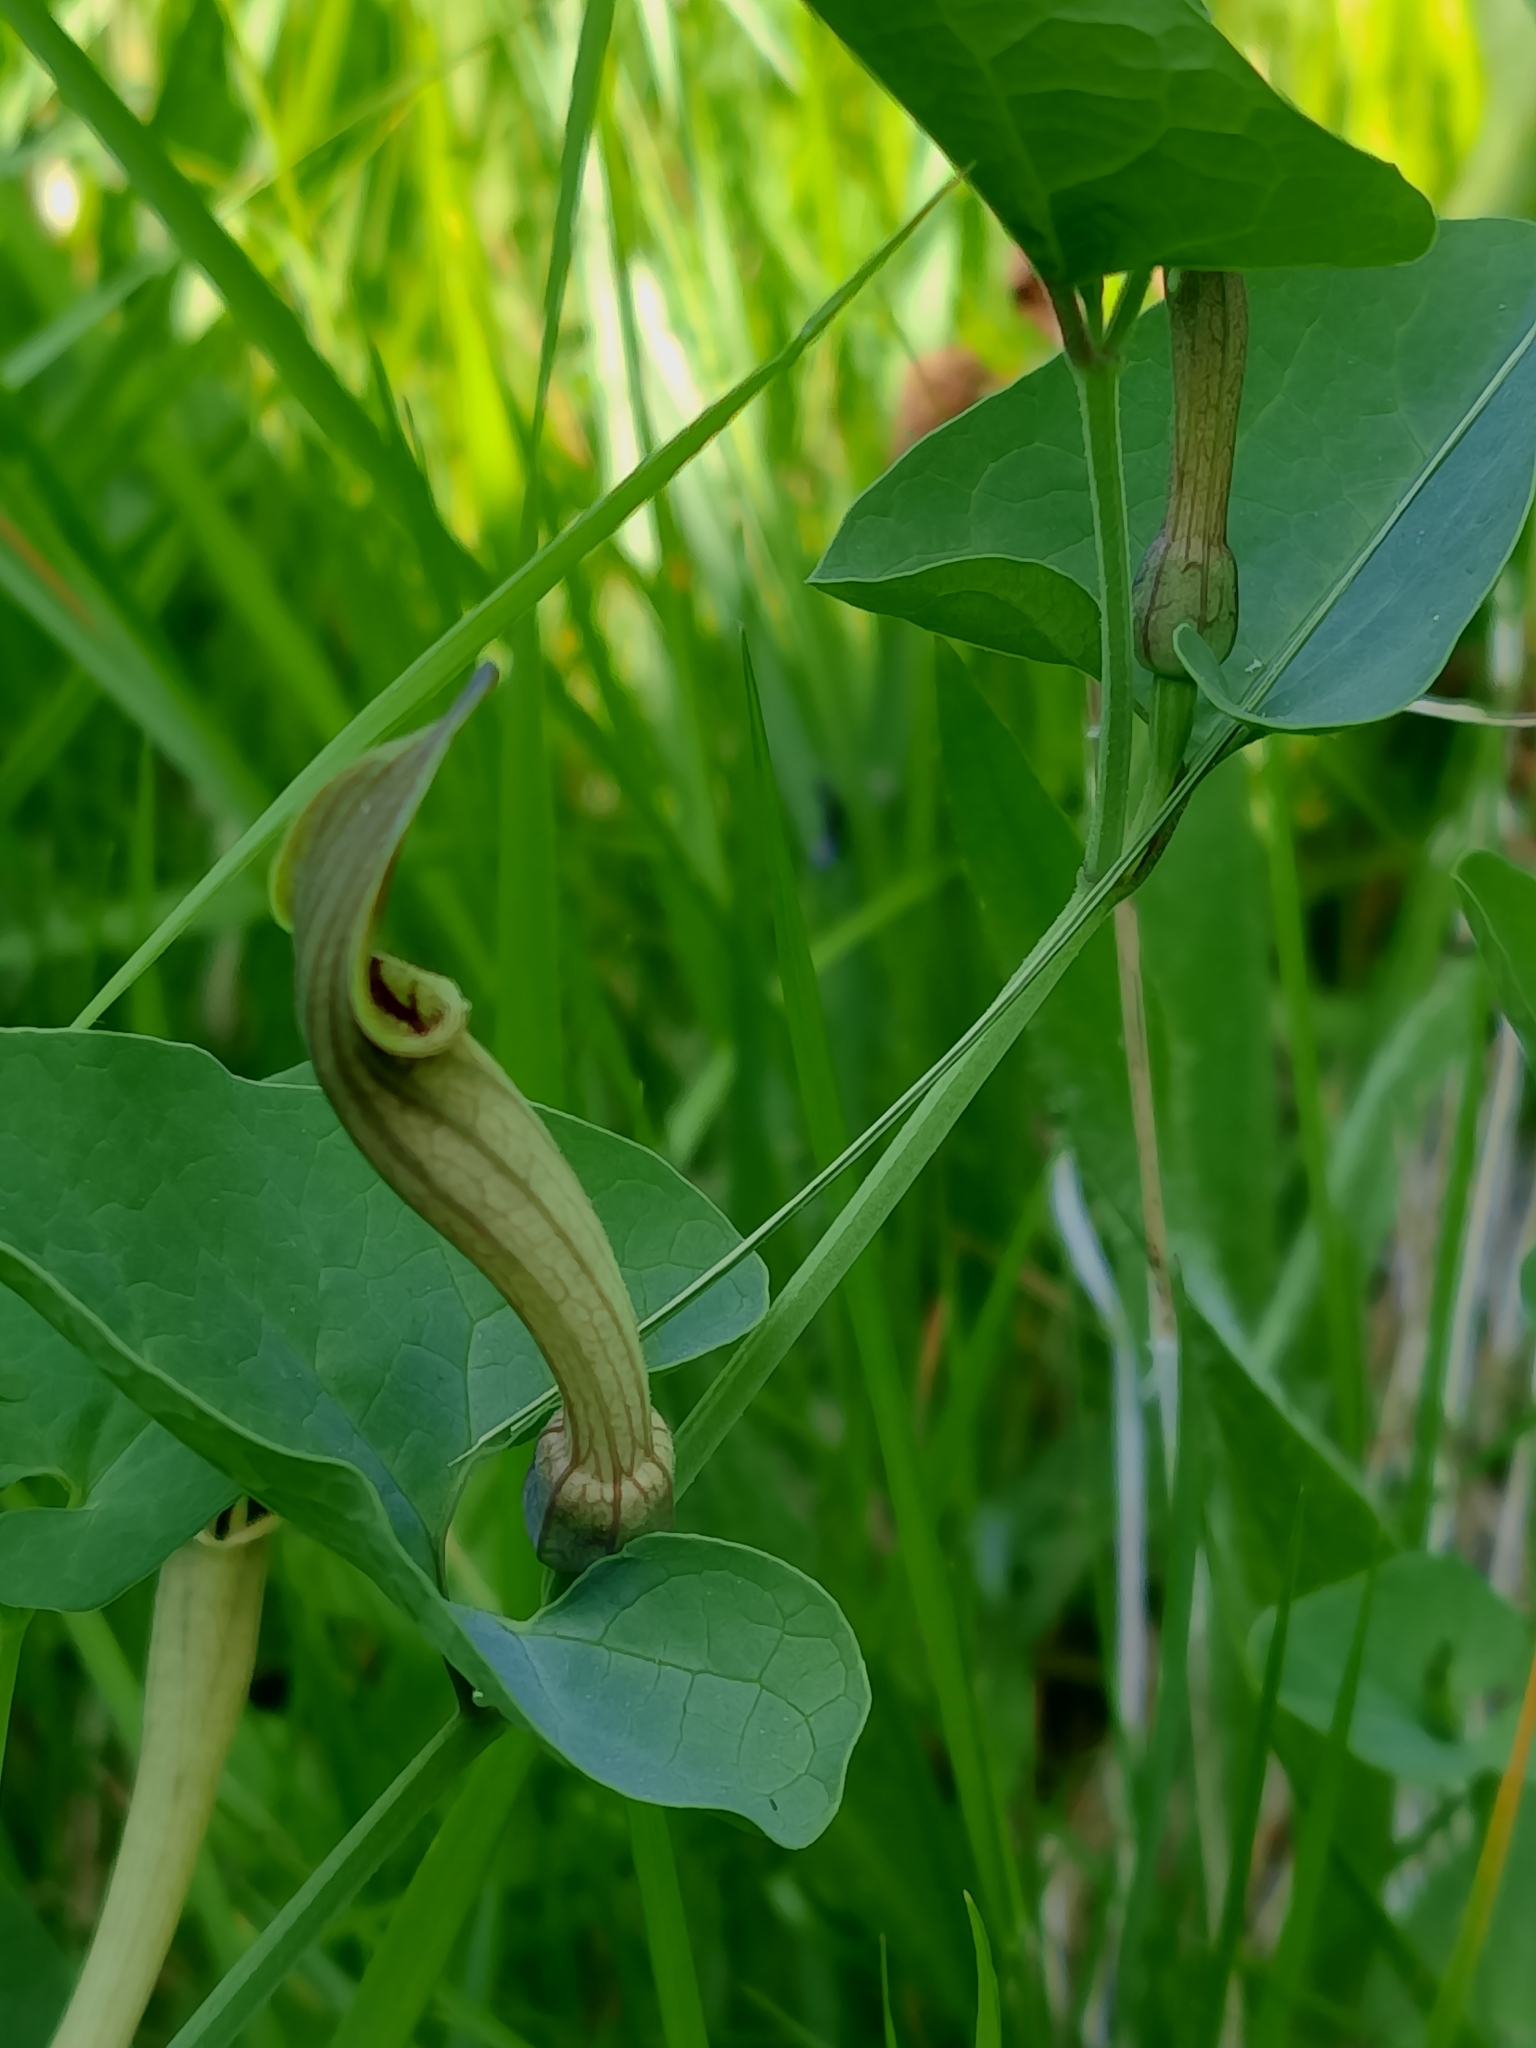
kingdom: Plantae
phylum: Tracheophyta
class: Magnoliopsida
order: Piperales
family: Aristolochiaceae
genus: Aristolochia
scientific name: Aristolochia paucinervis
